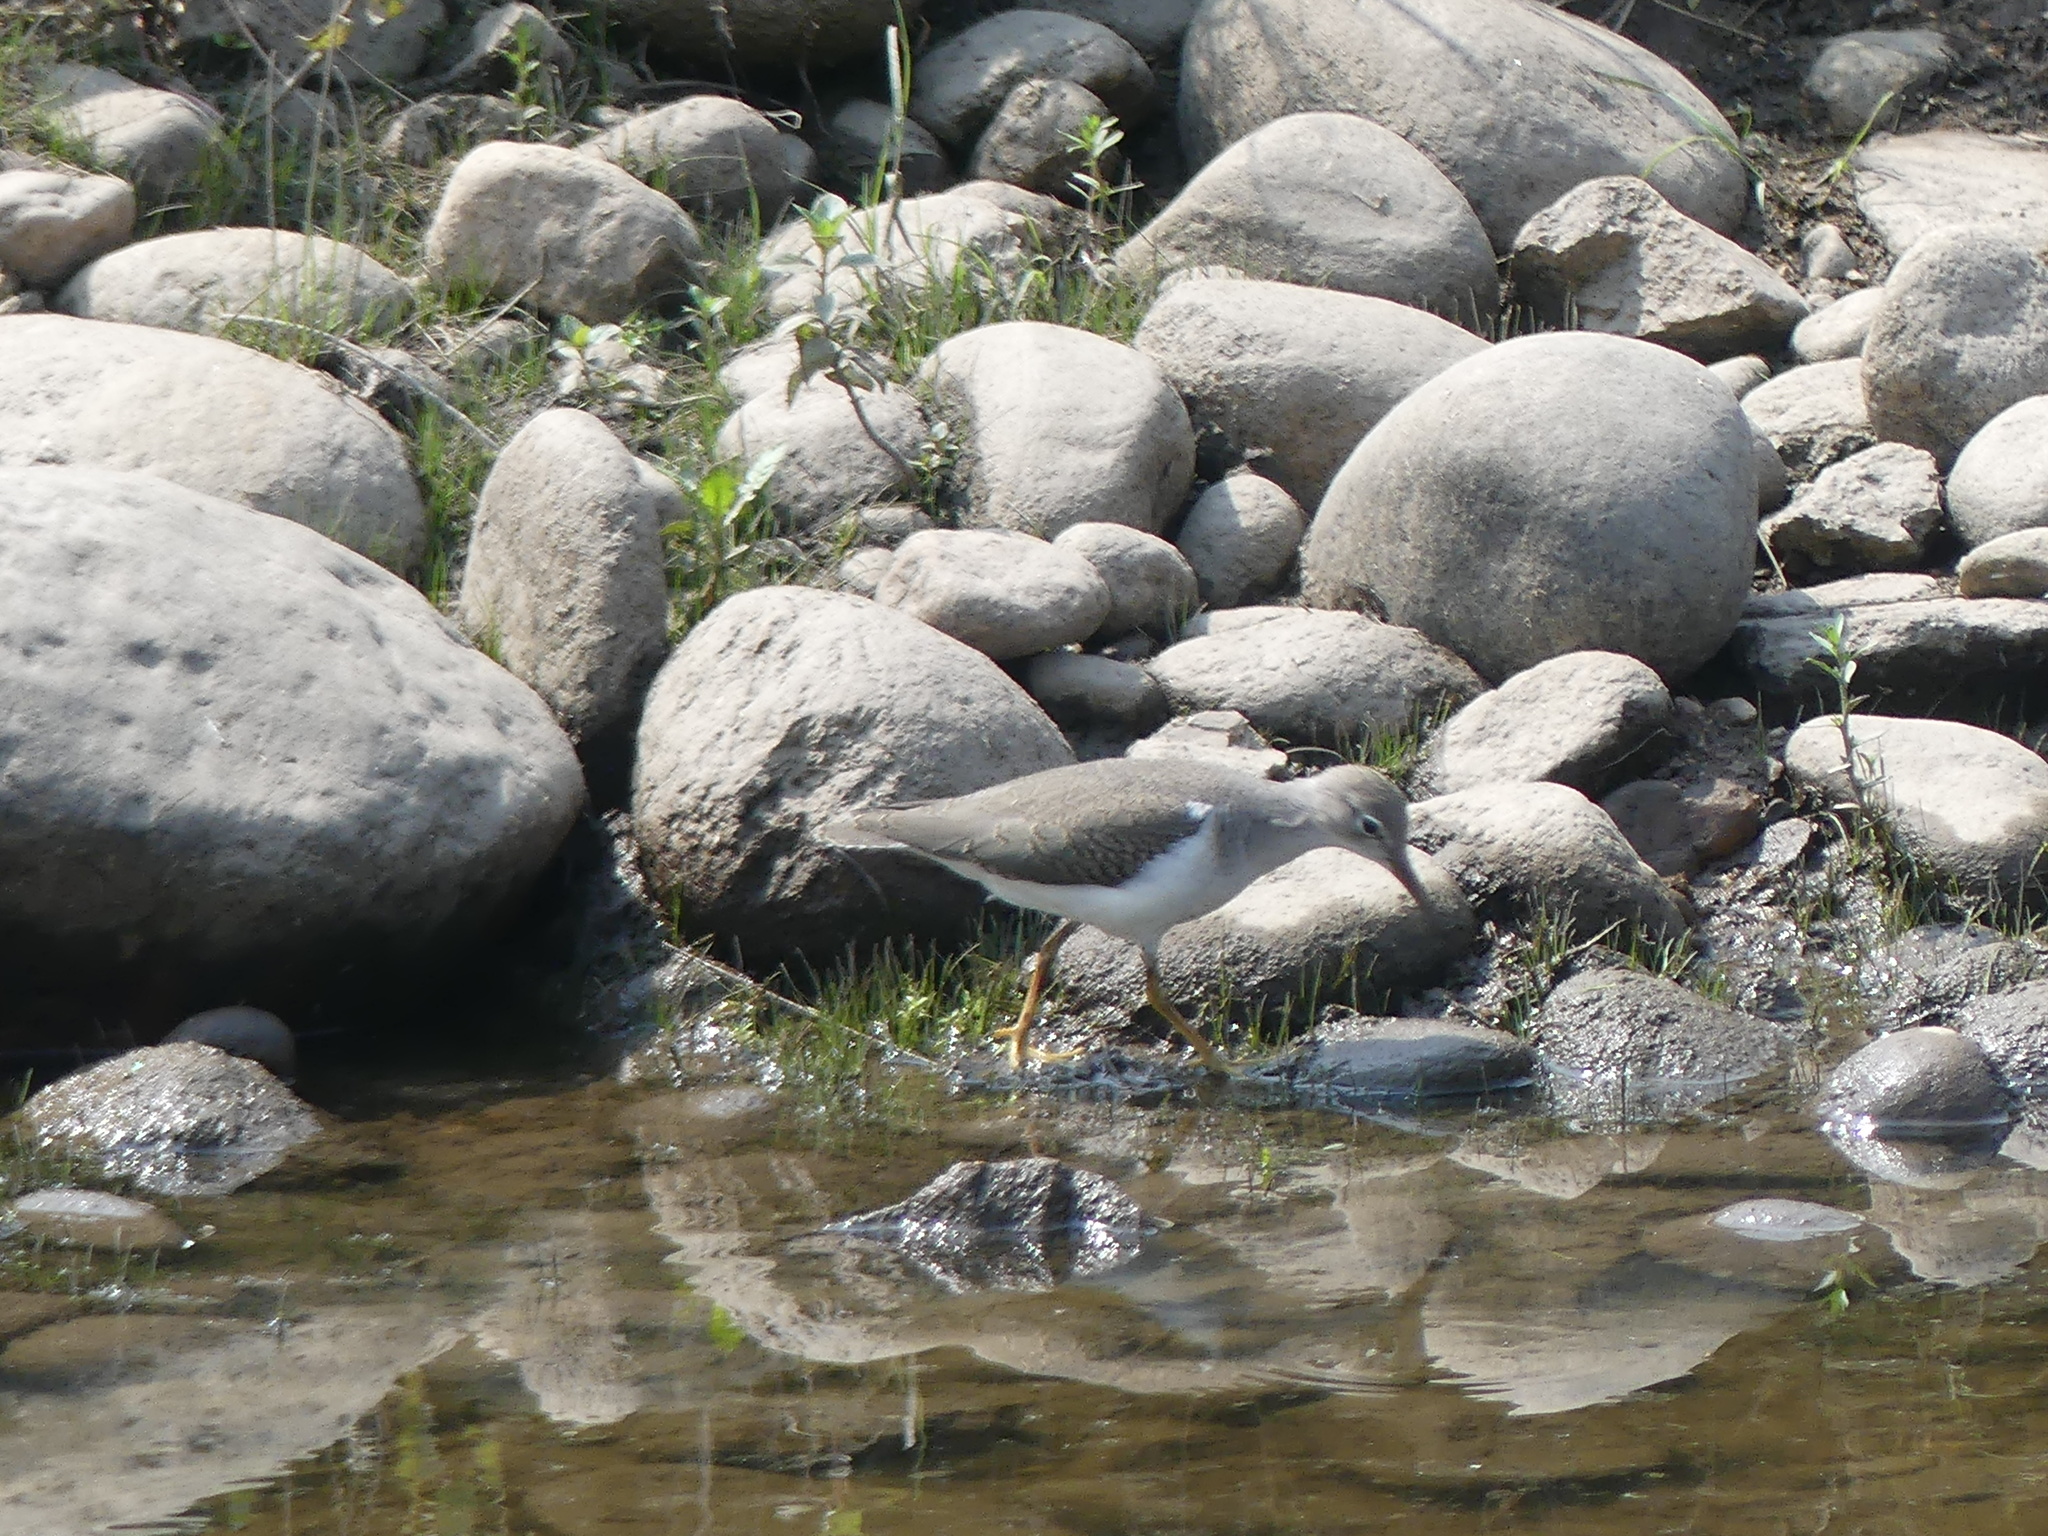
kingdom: Animalia
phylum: Chordata
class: Aves
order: Charadriiformes
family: Scolopacidae
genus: Actitis
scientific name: Actitis macularius
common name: Spotted sandpiper
